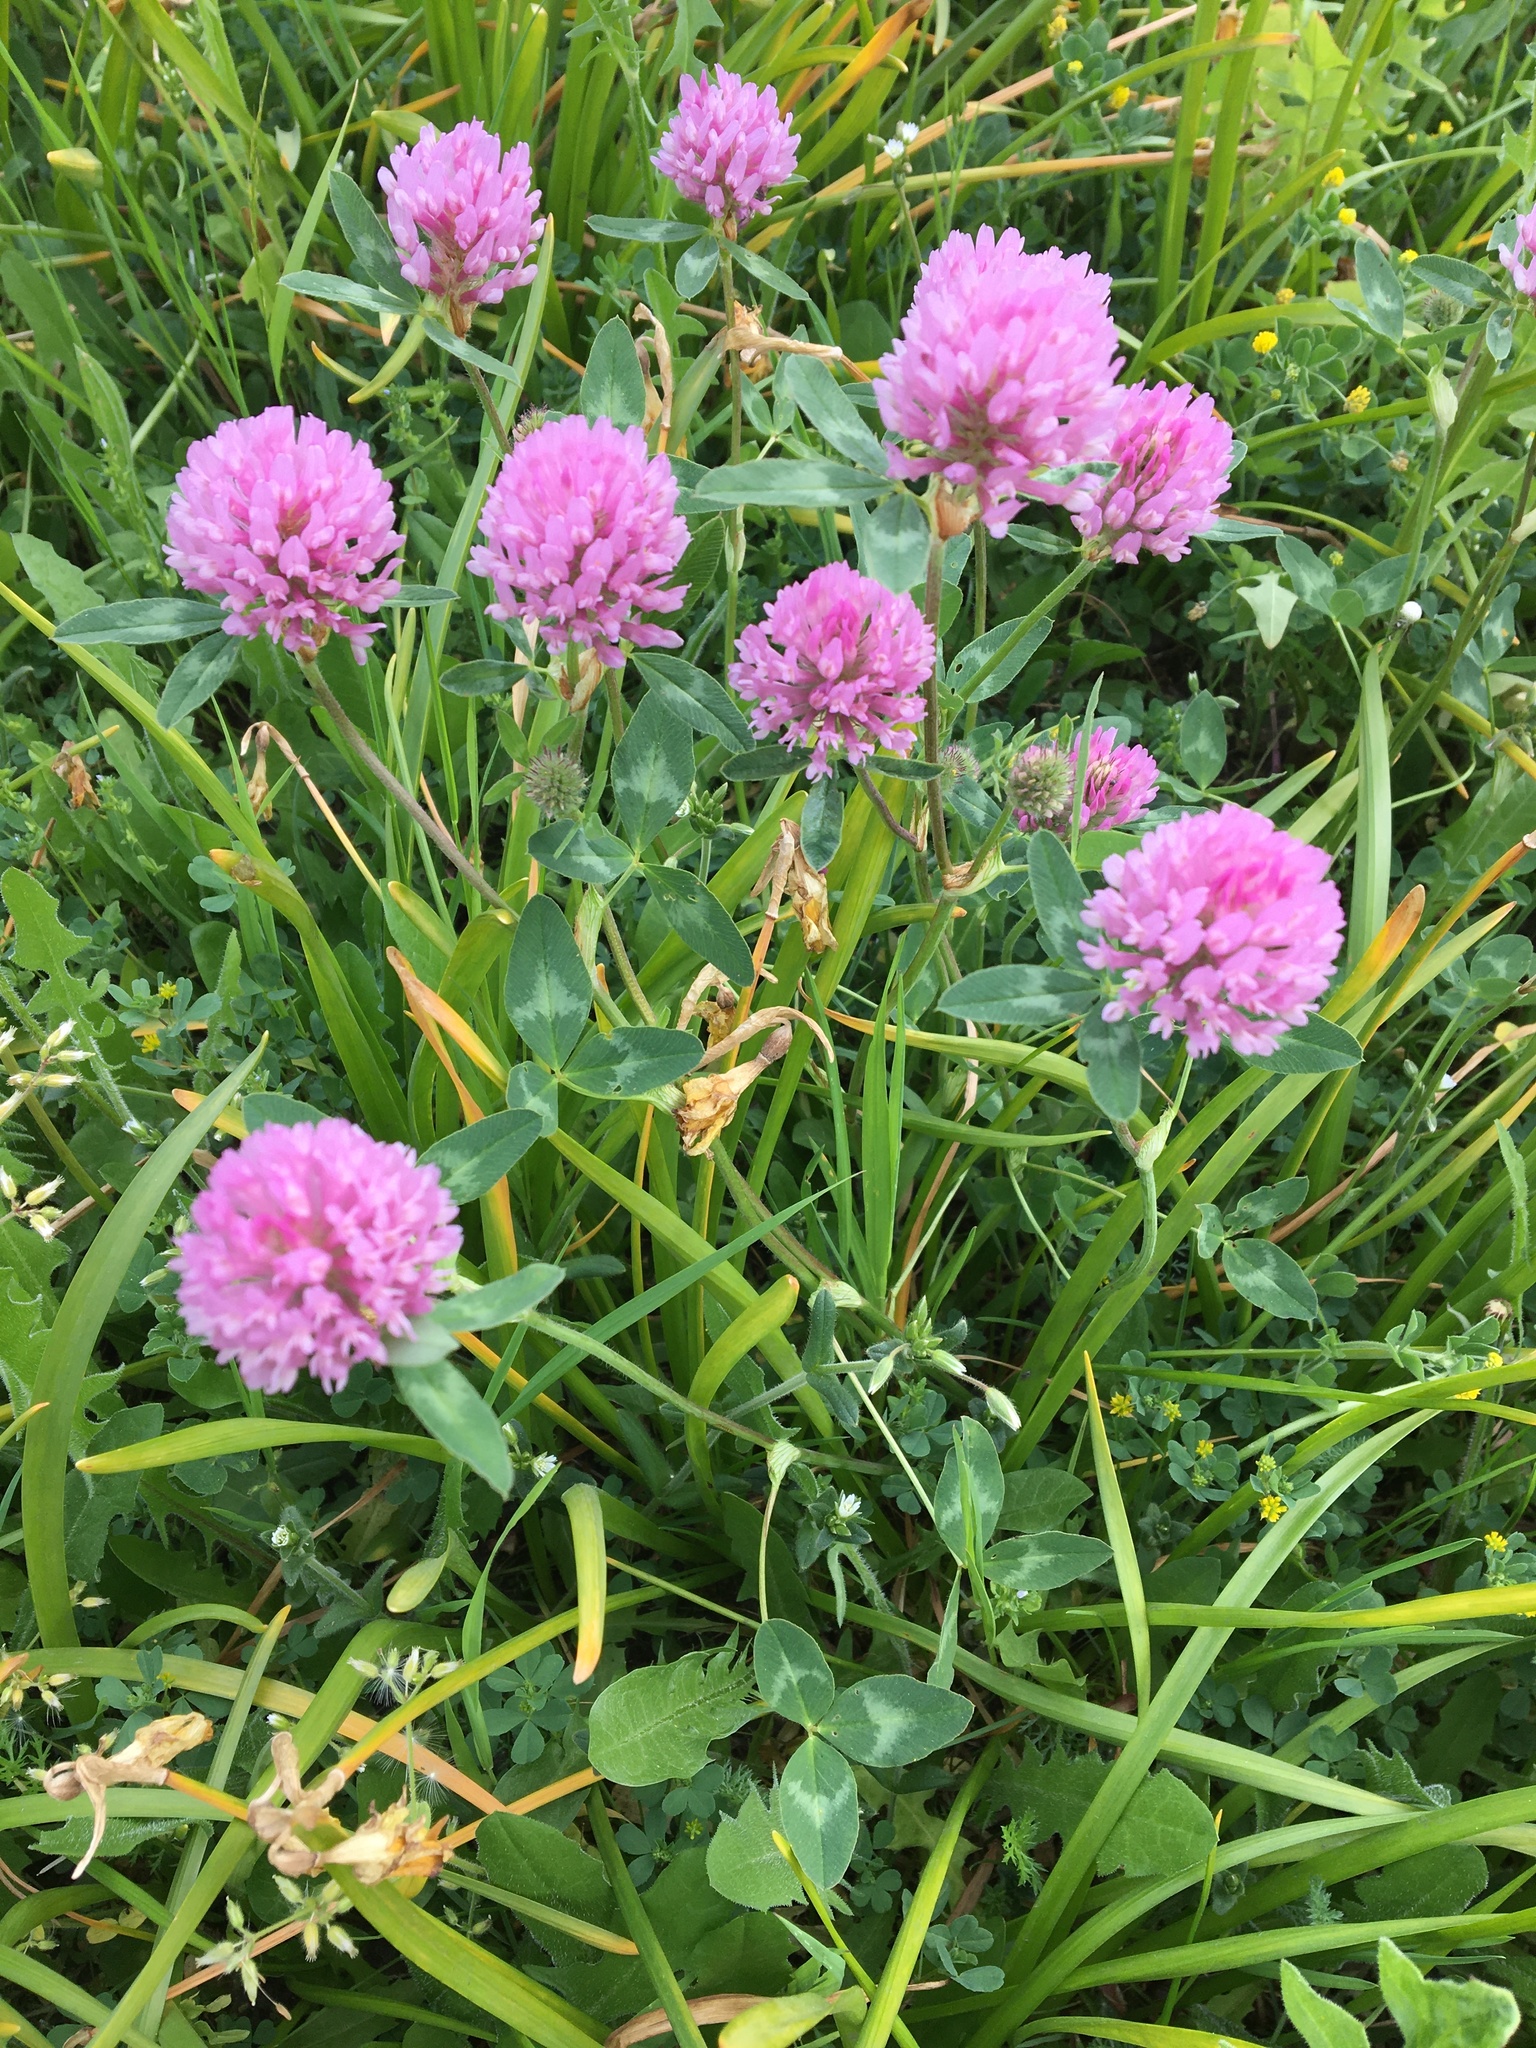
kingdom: Plantae
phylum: Tracheophyta
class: Magnoliopsida
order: Fabales
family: Fabaceae
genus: Trifolium
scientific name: Trifolium pratense
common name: Red clover
